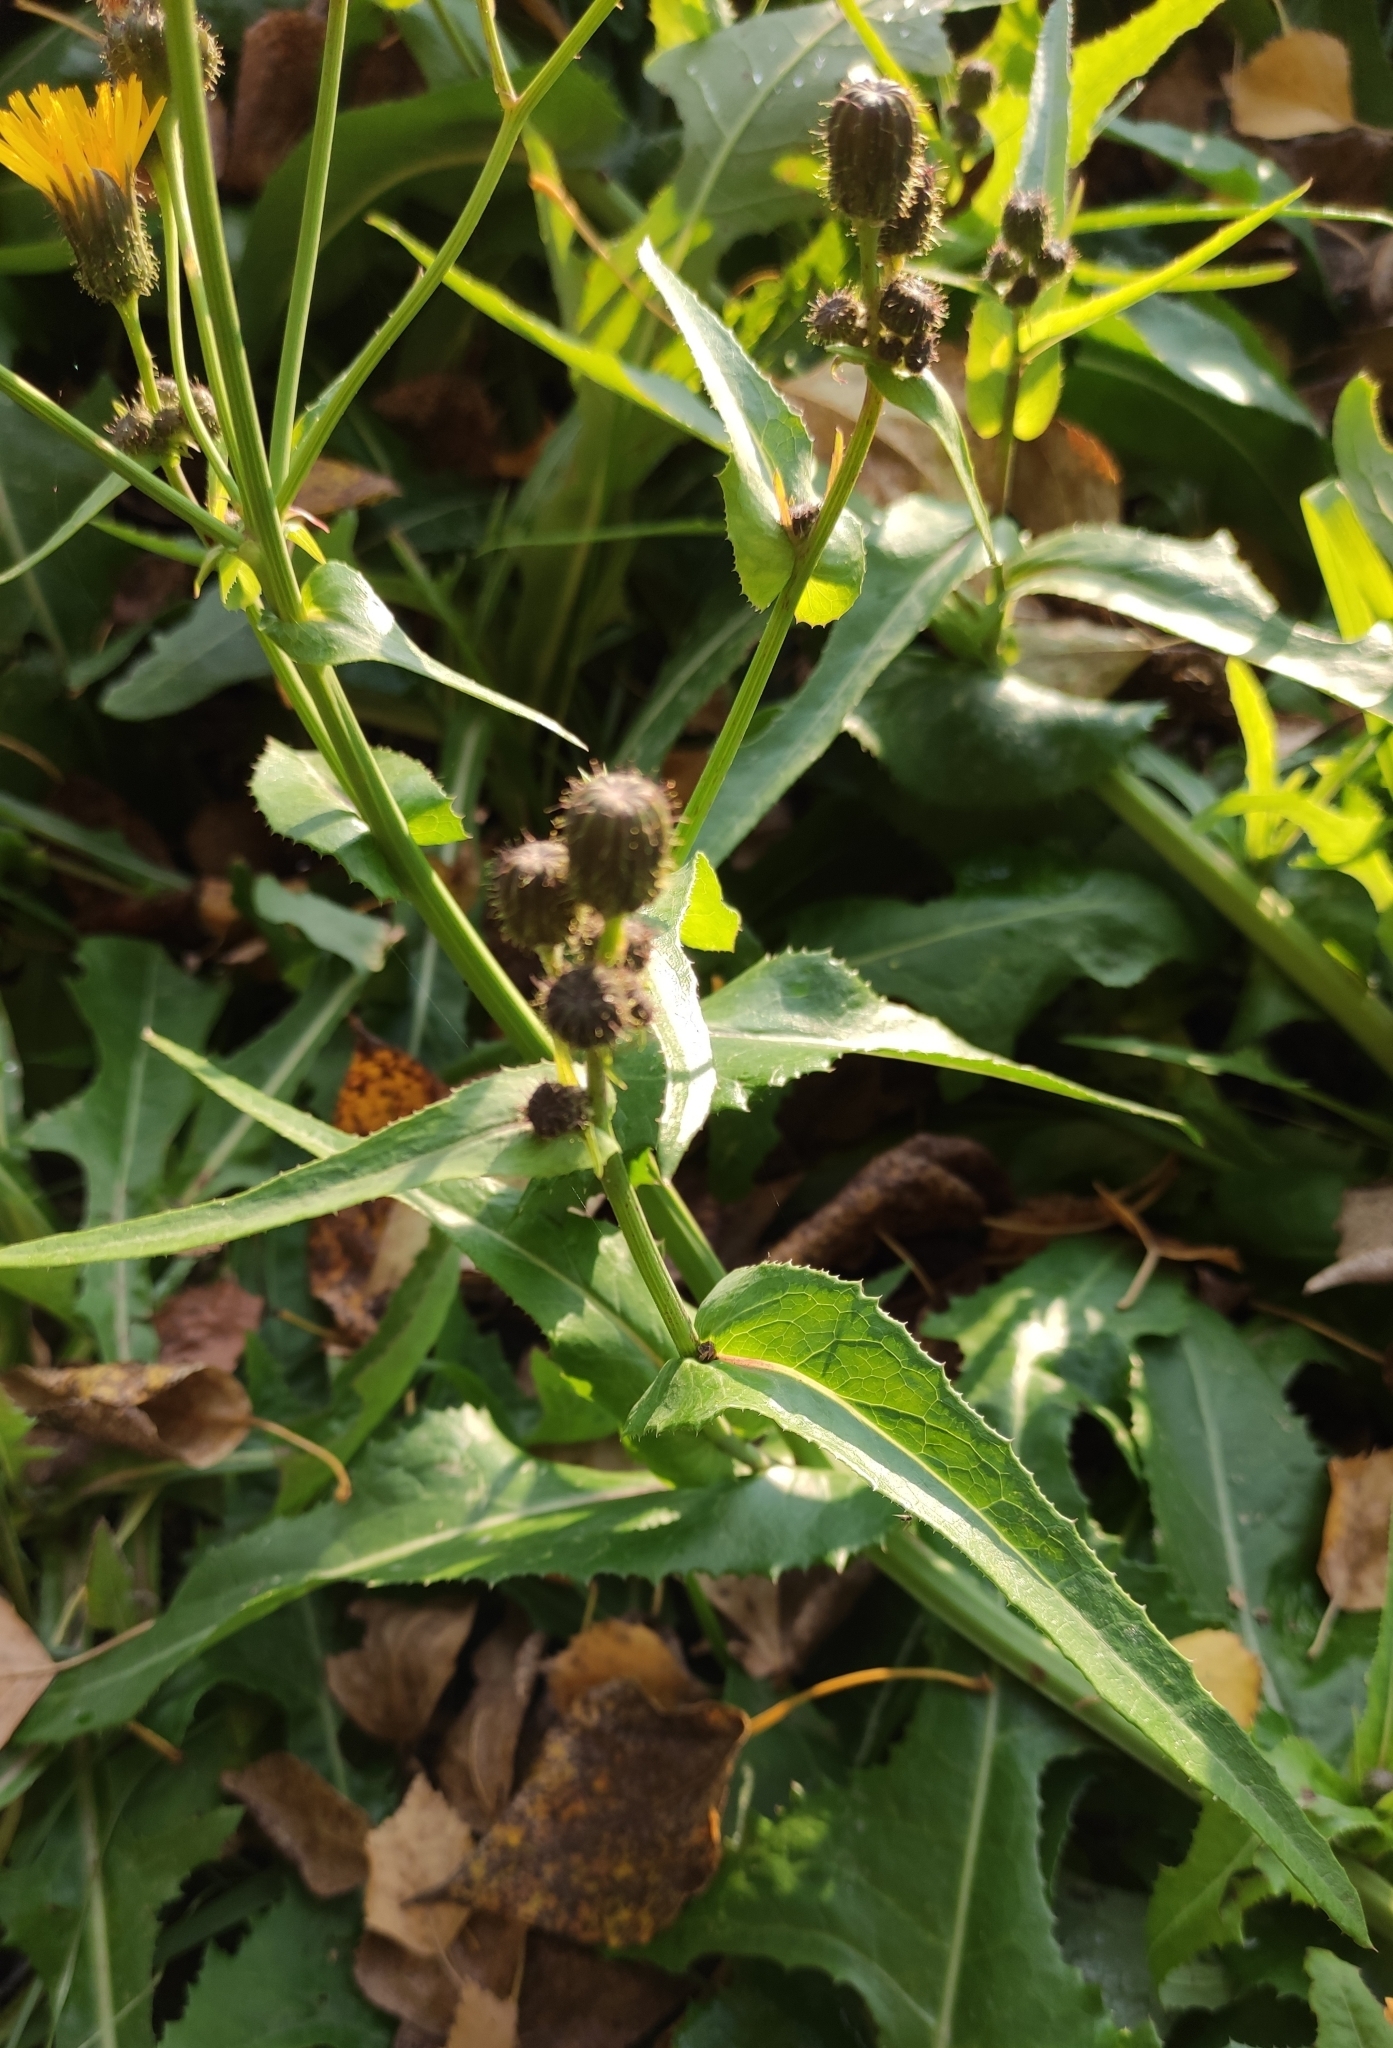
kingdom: Plantae
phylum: Tracheophyta
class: Magnoliopsida
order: Asterales
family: Asteraceae
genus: Sonchus
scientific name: Sonchus arvensis
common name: Perennial sow-thistle
